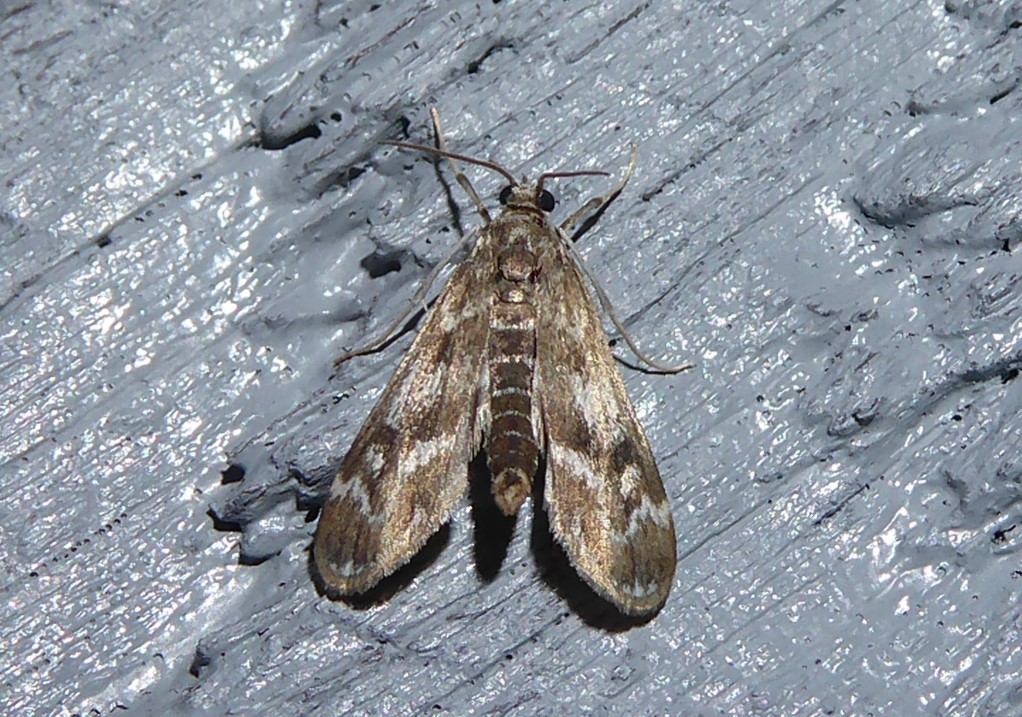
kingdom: Animalia
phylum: Arthropoda
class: Insecta
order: Lepidoptera
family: Crambidae
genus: Hygraula
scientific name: Hygraula nitens
